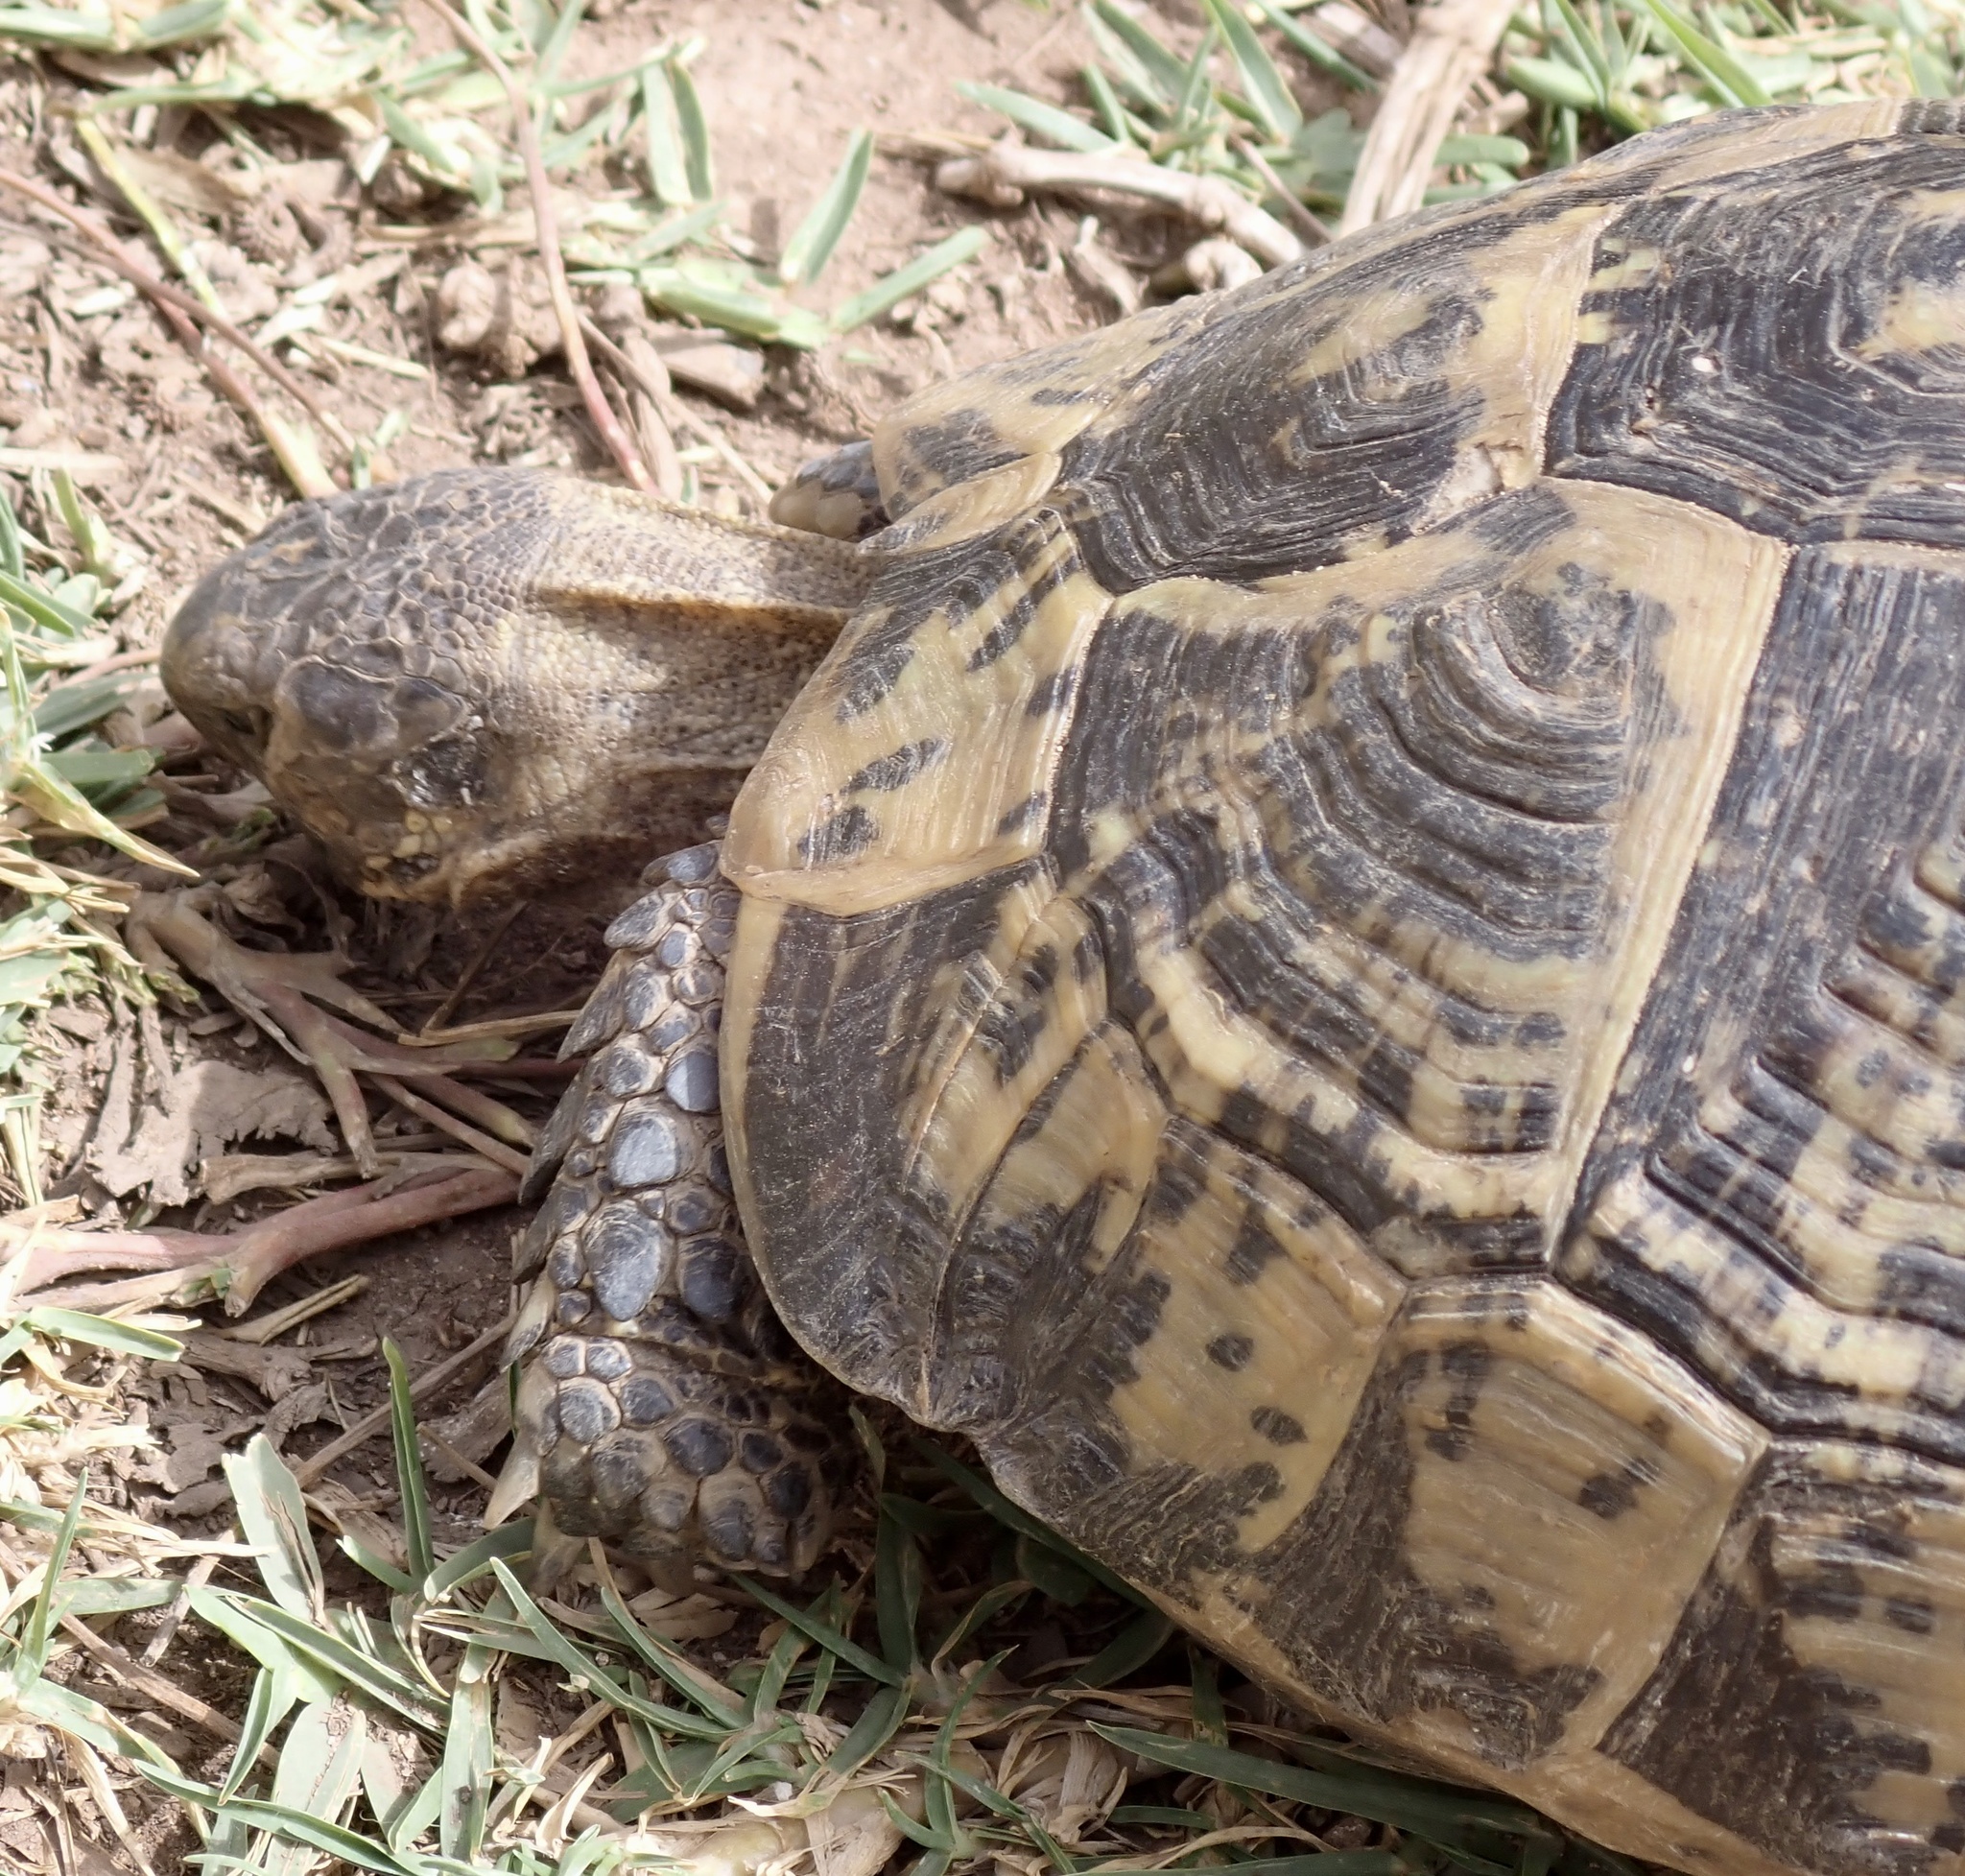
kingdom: Animalia
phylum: Chordata
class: Testudines
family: Testudinidae
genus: Testudo
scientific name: Testudo graeca
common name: Common tortoise
